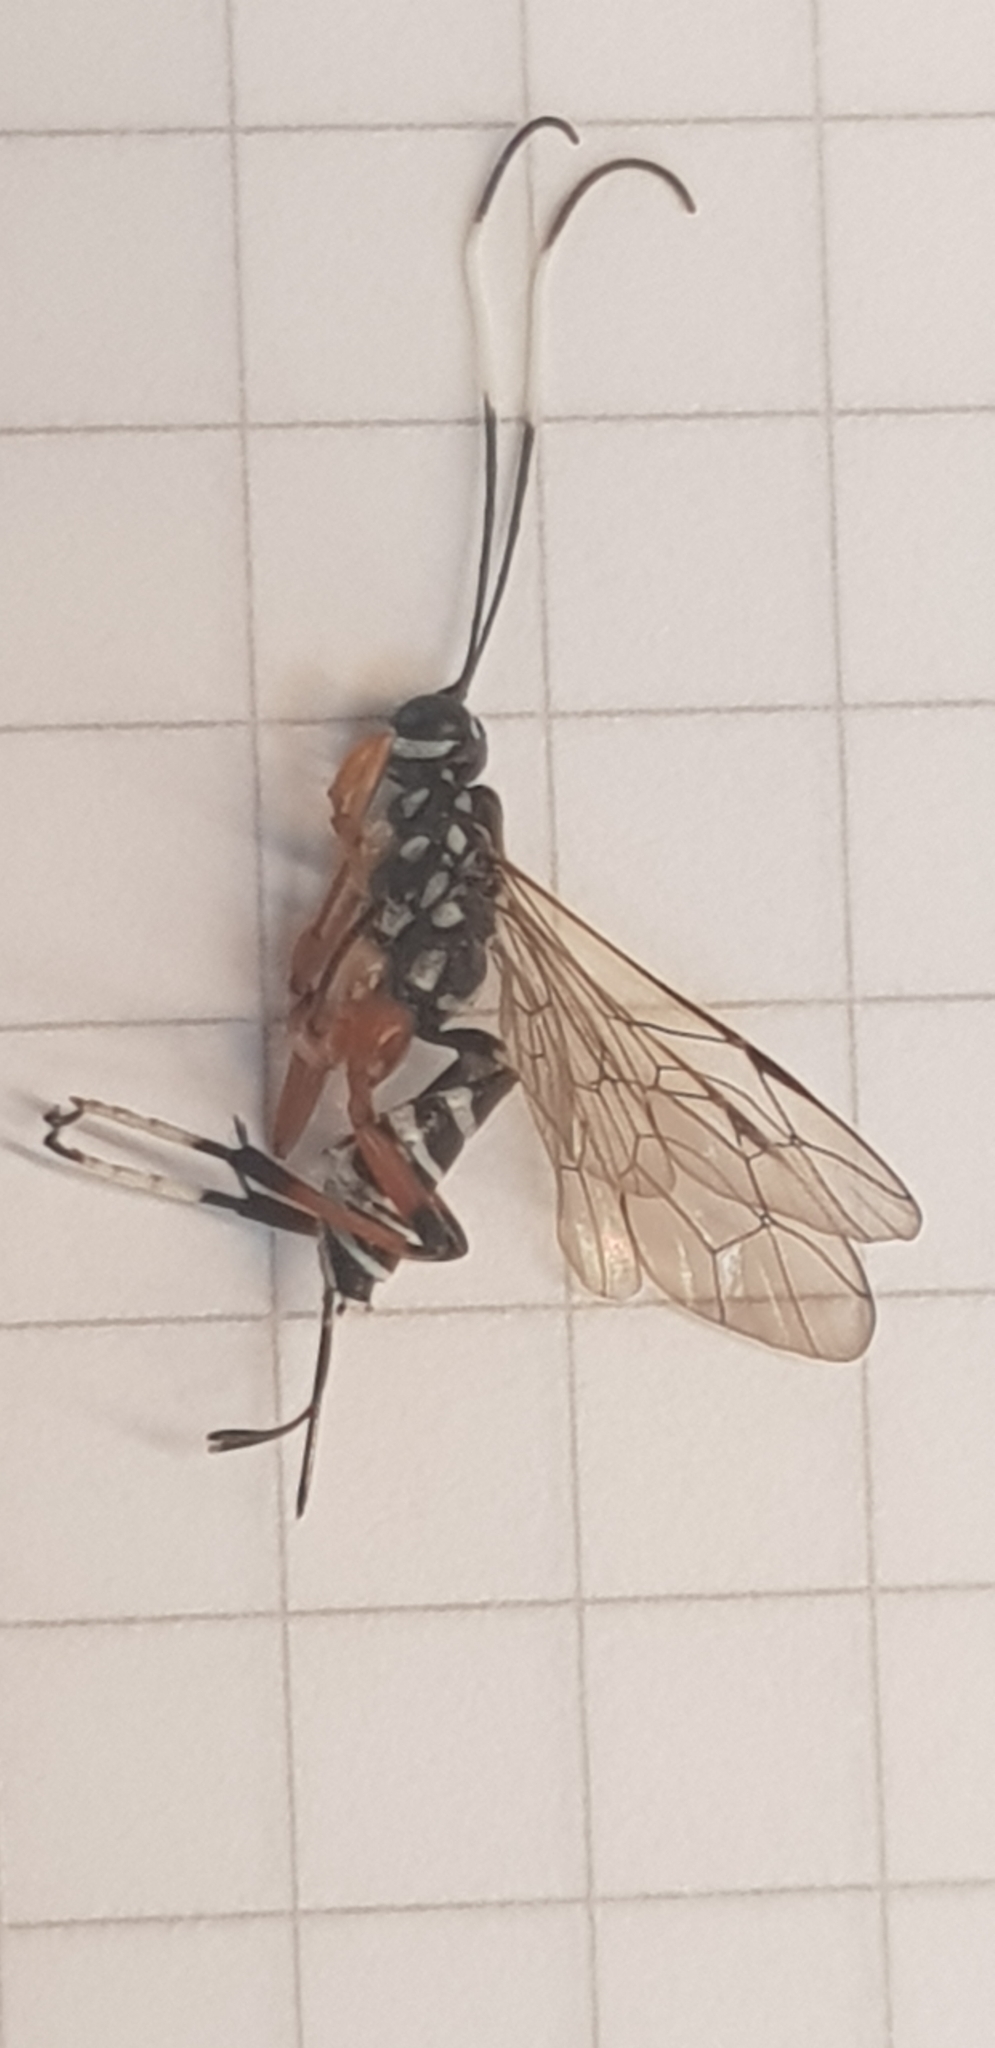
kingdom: Animalia
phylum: Arthropoda
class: Insecta
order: Hymenoptera
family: Ichneumonidae
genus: Xanthocryptus
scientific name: Xanthocryptus novozealandicus
